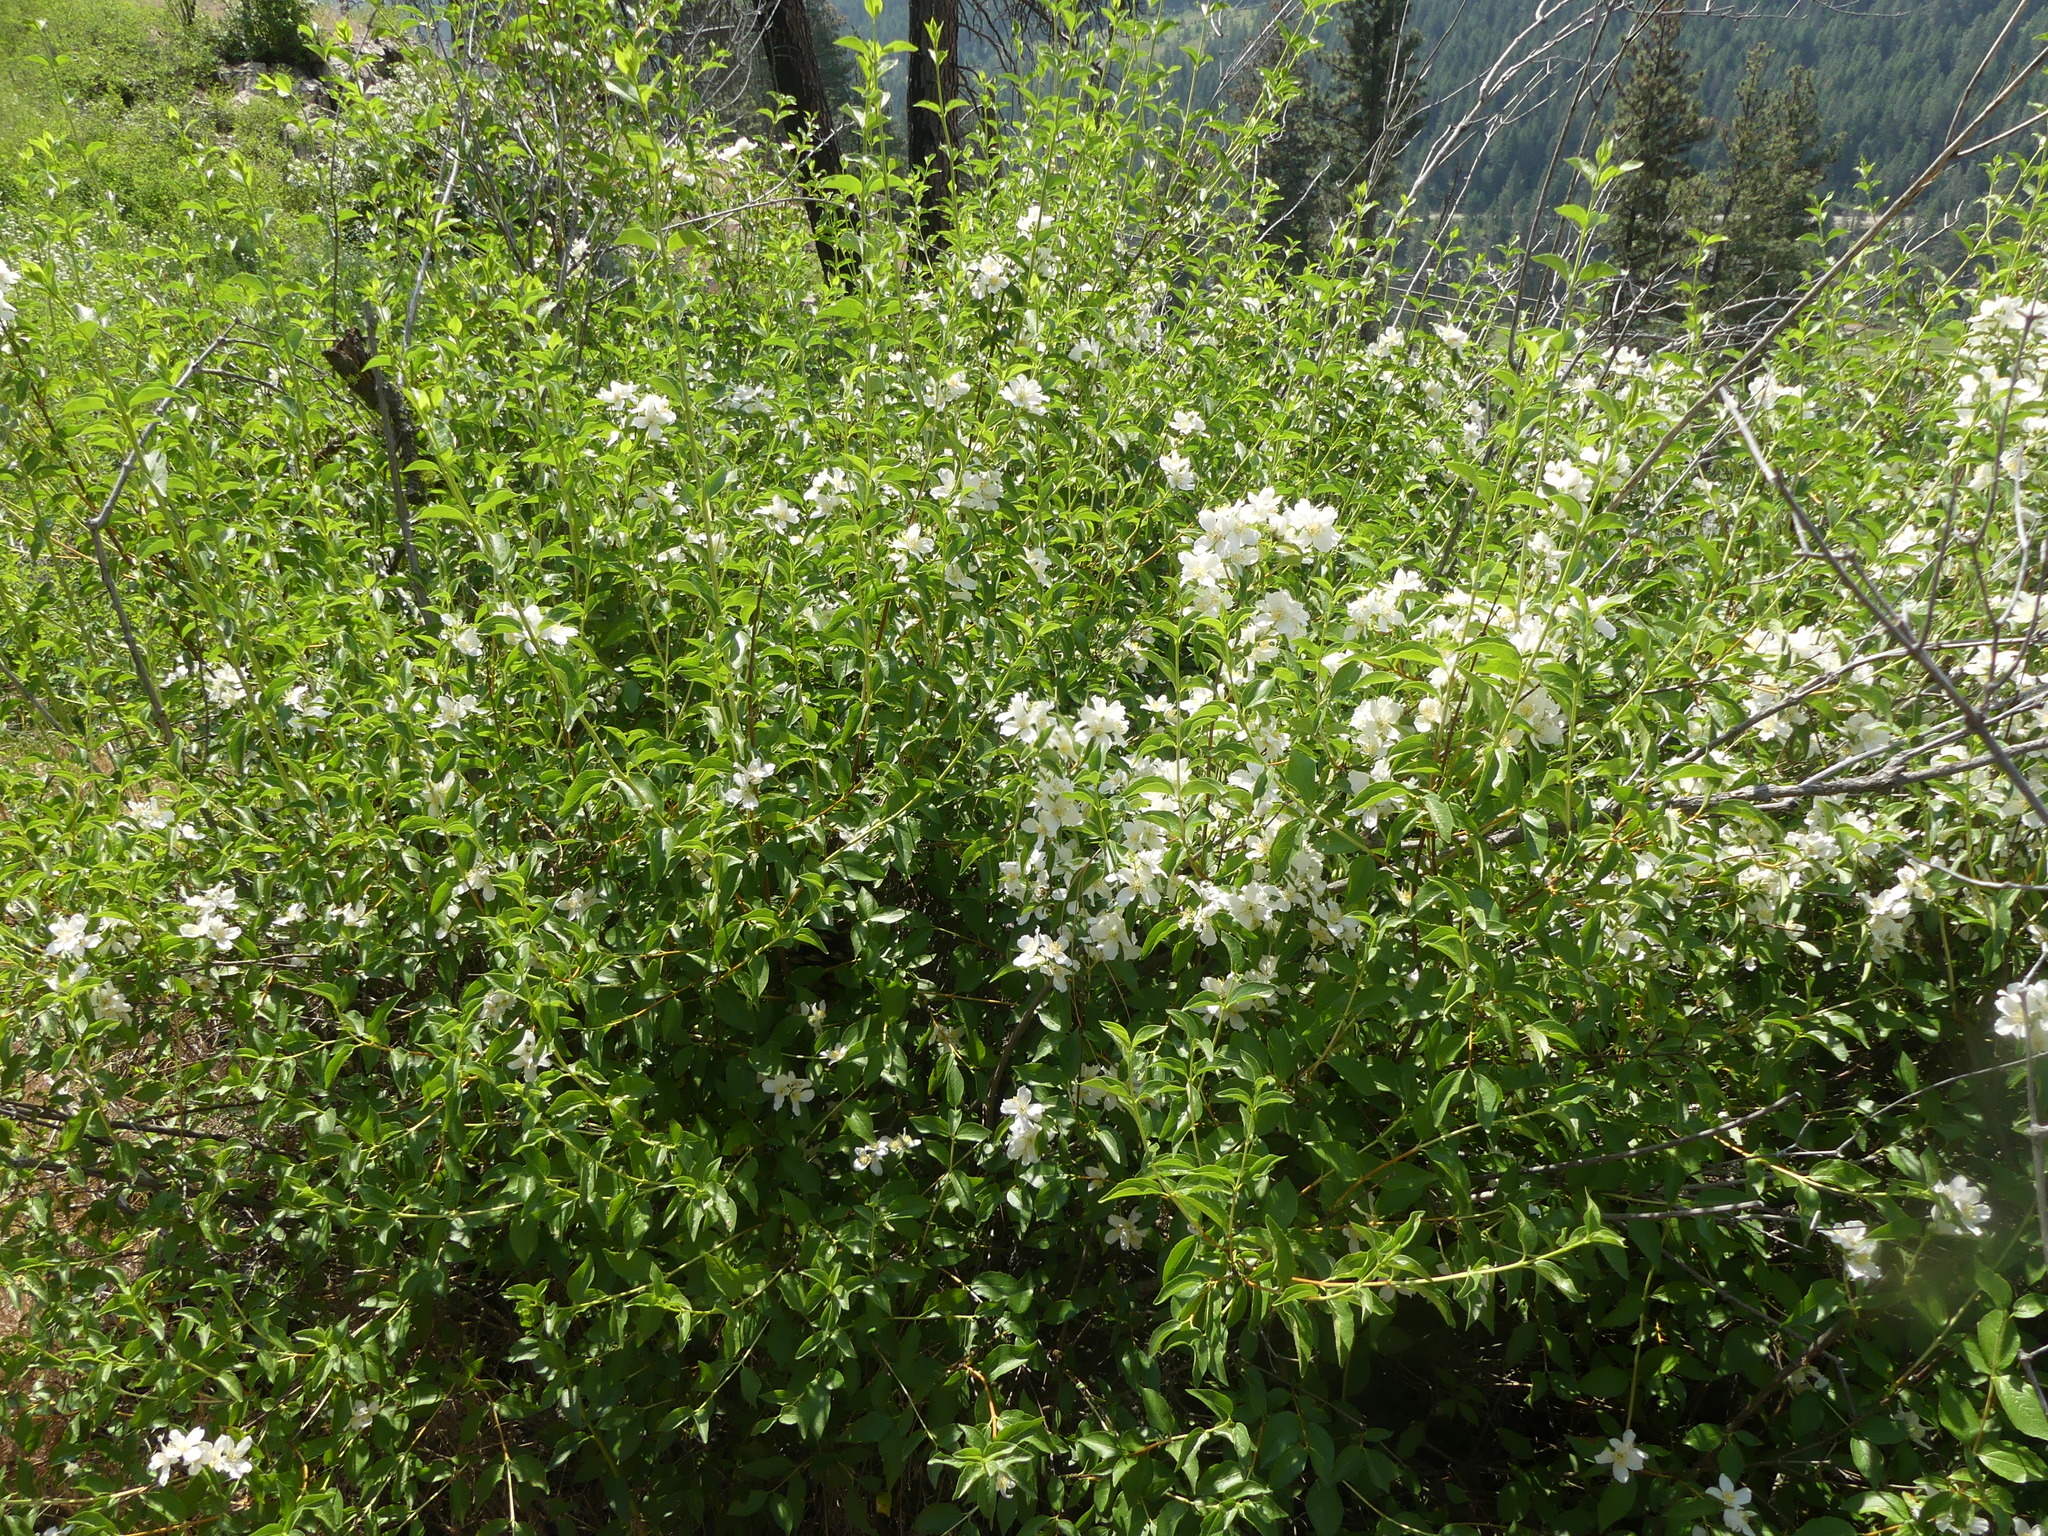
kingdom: Plantae
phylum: Tracheophyta
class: Magnoliopsida
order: Cornales
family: Hydrangeaceae
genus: Philadelphus
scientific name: Philadelphus lewisii
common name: Lewis's mock orange
